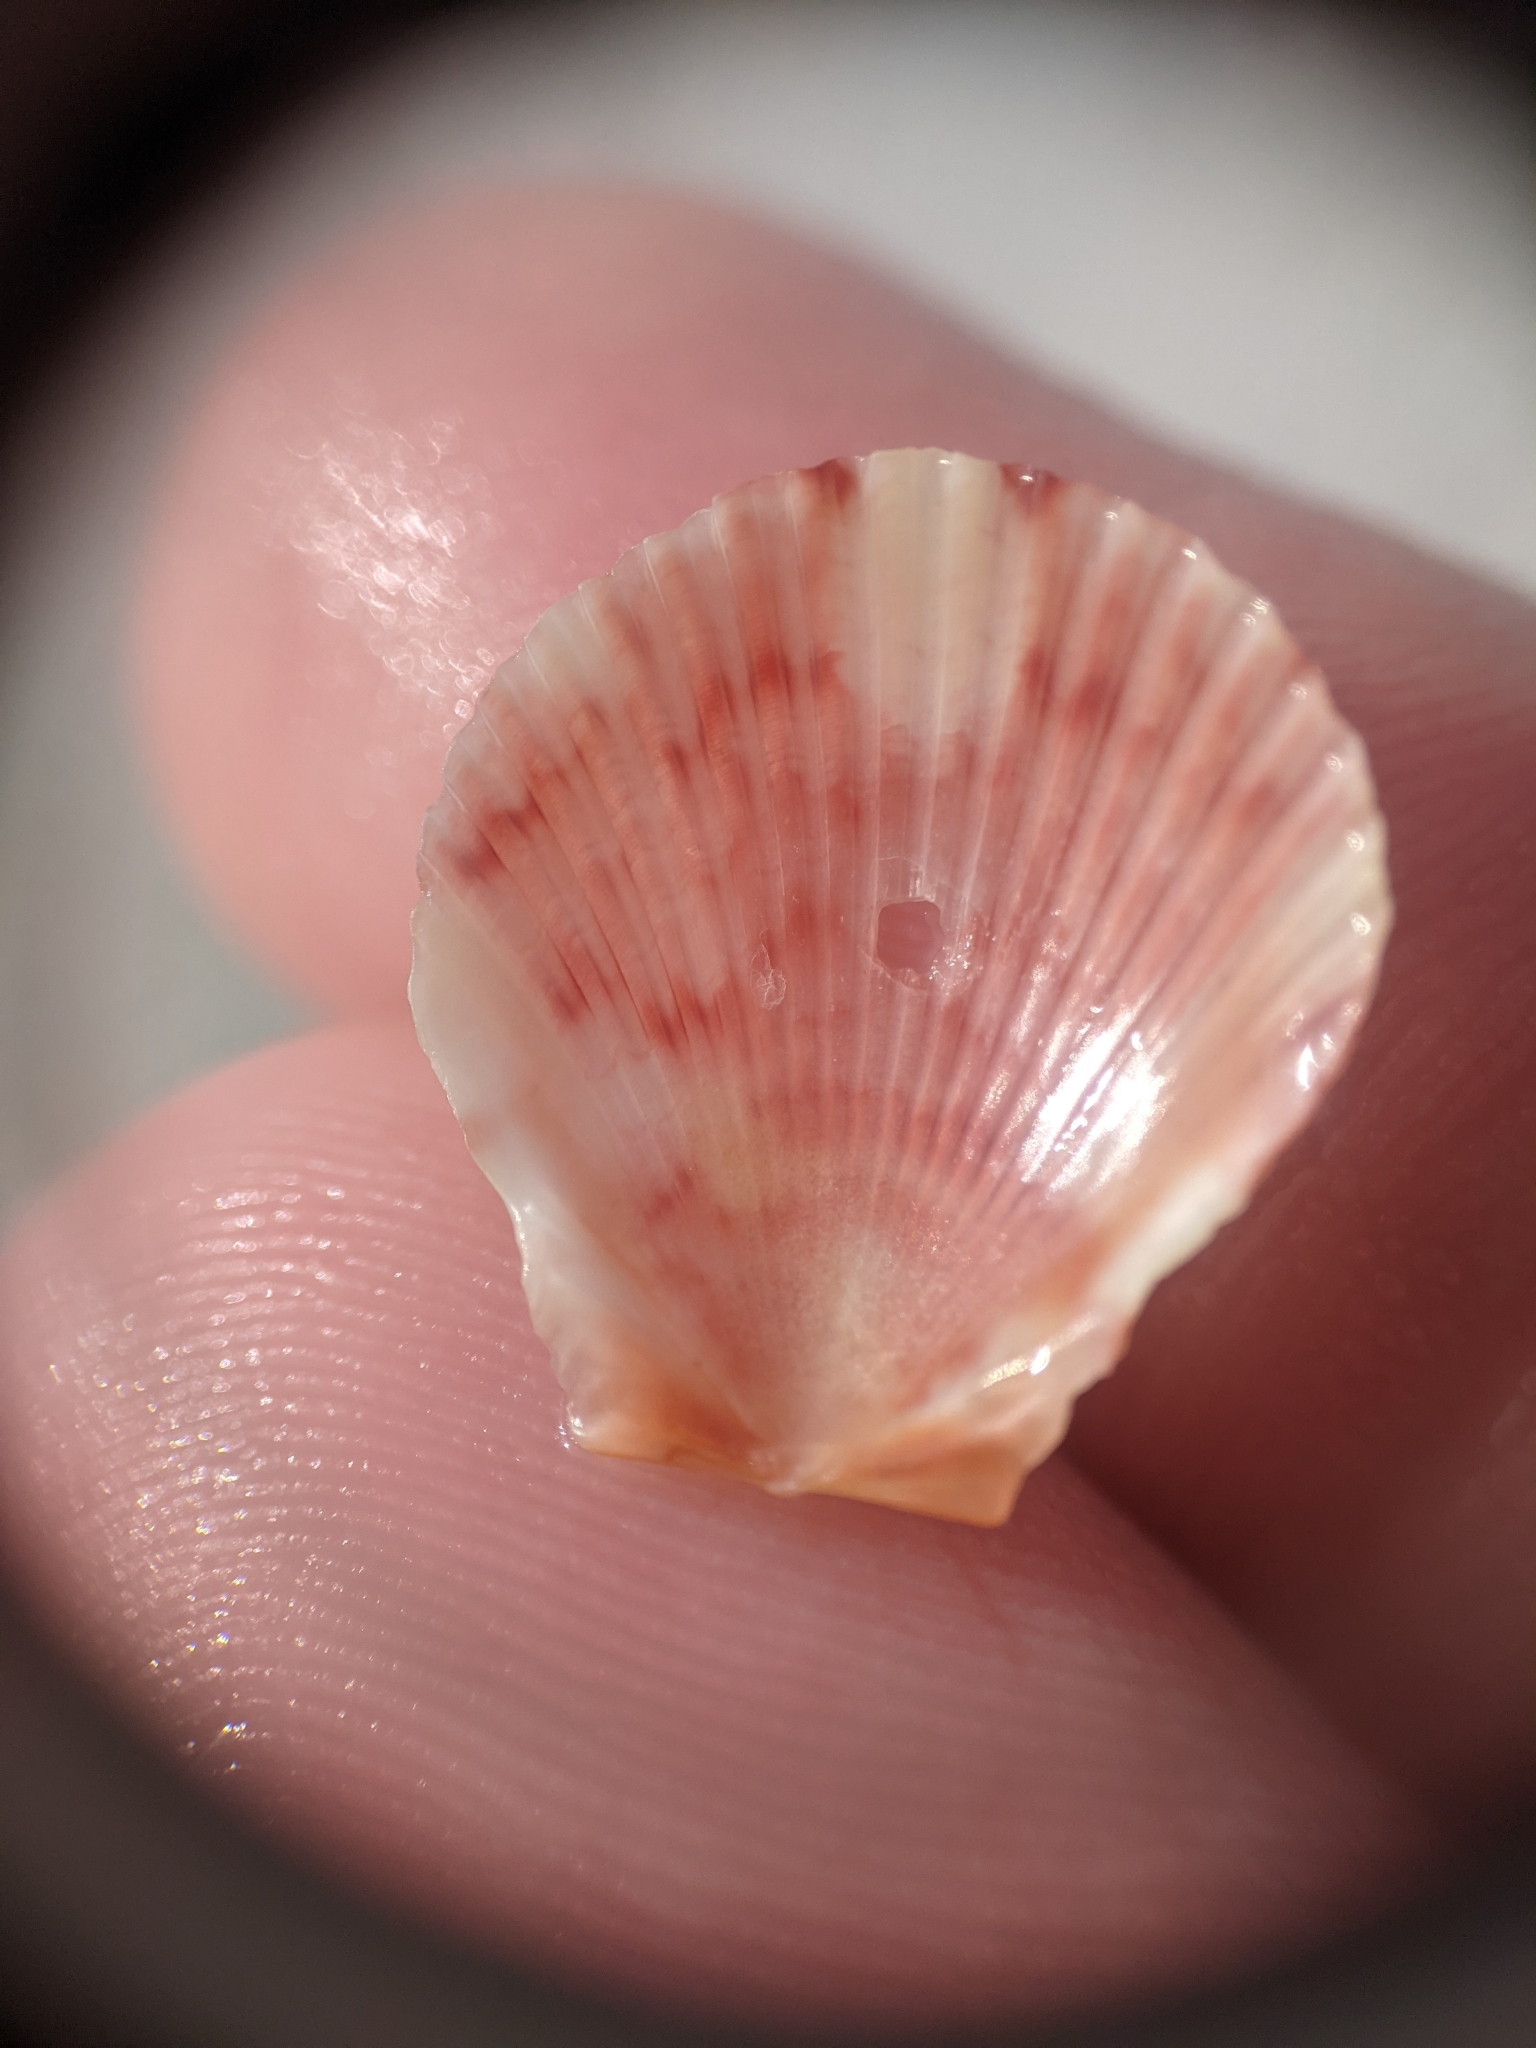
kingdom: Animalia
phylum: Mollusca
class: Bivalvia
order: Pectinida
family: Pectinidae
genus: Argopecten
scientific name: Argopecten gibbus
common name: Atlantic calico scallop
